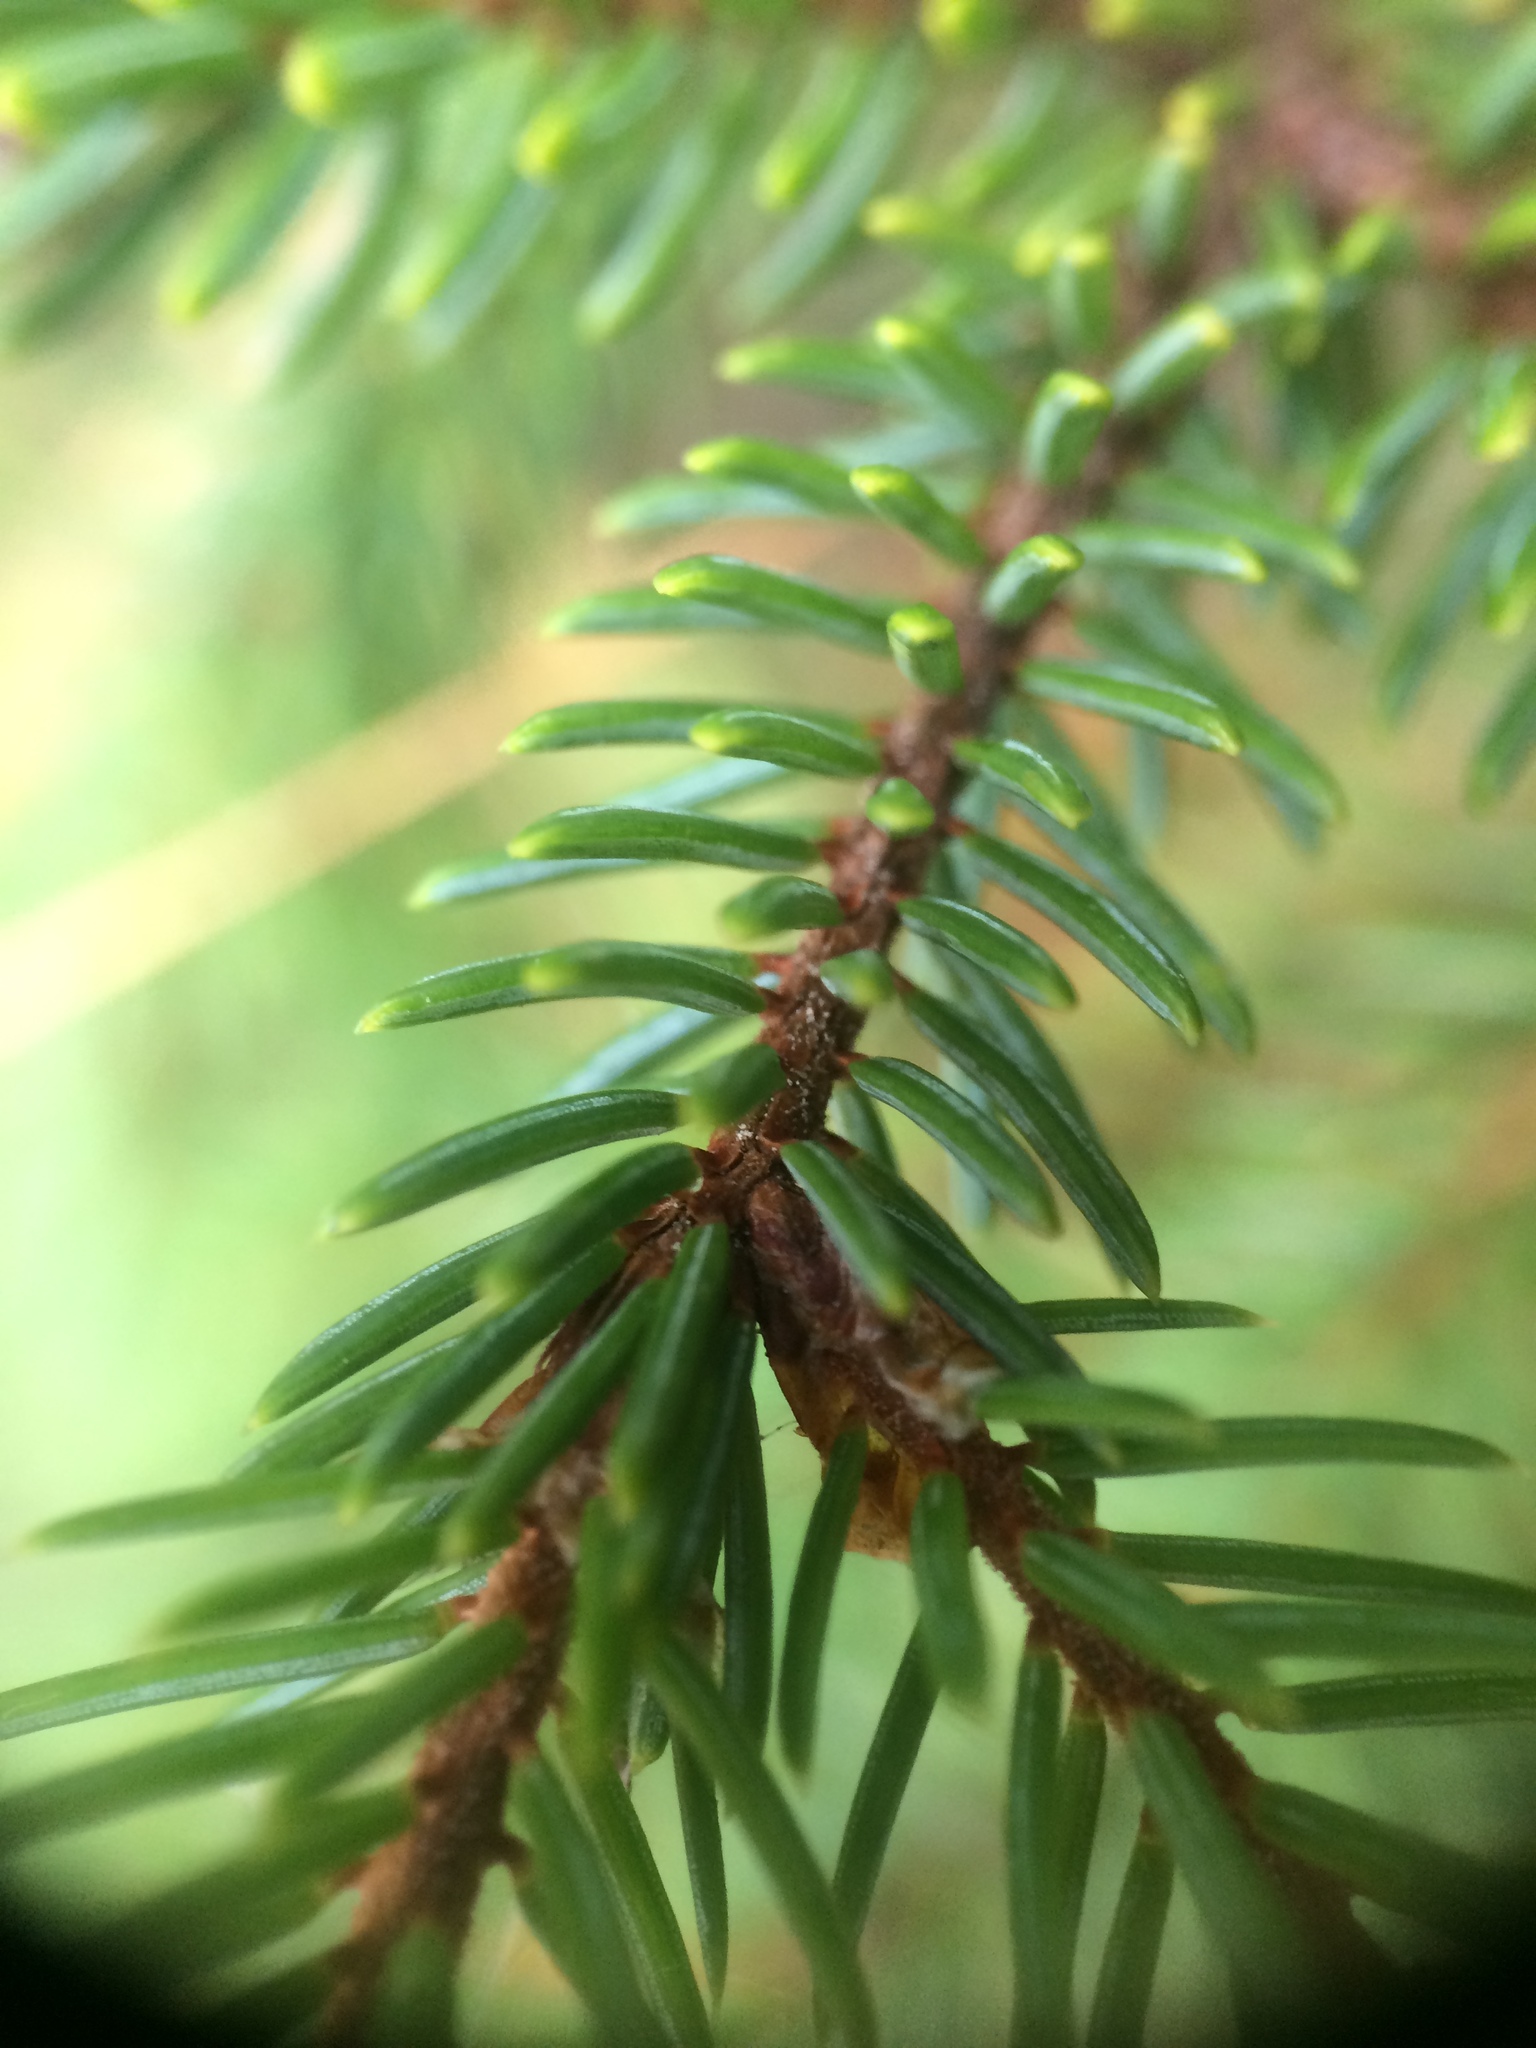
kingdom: Plantae
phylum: Tracheophyta
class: Pinopsida
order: Pinales
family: Pinaceae
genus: Picea
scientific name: Picea mariana
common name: Black spruce
